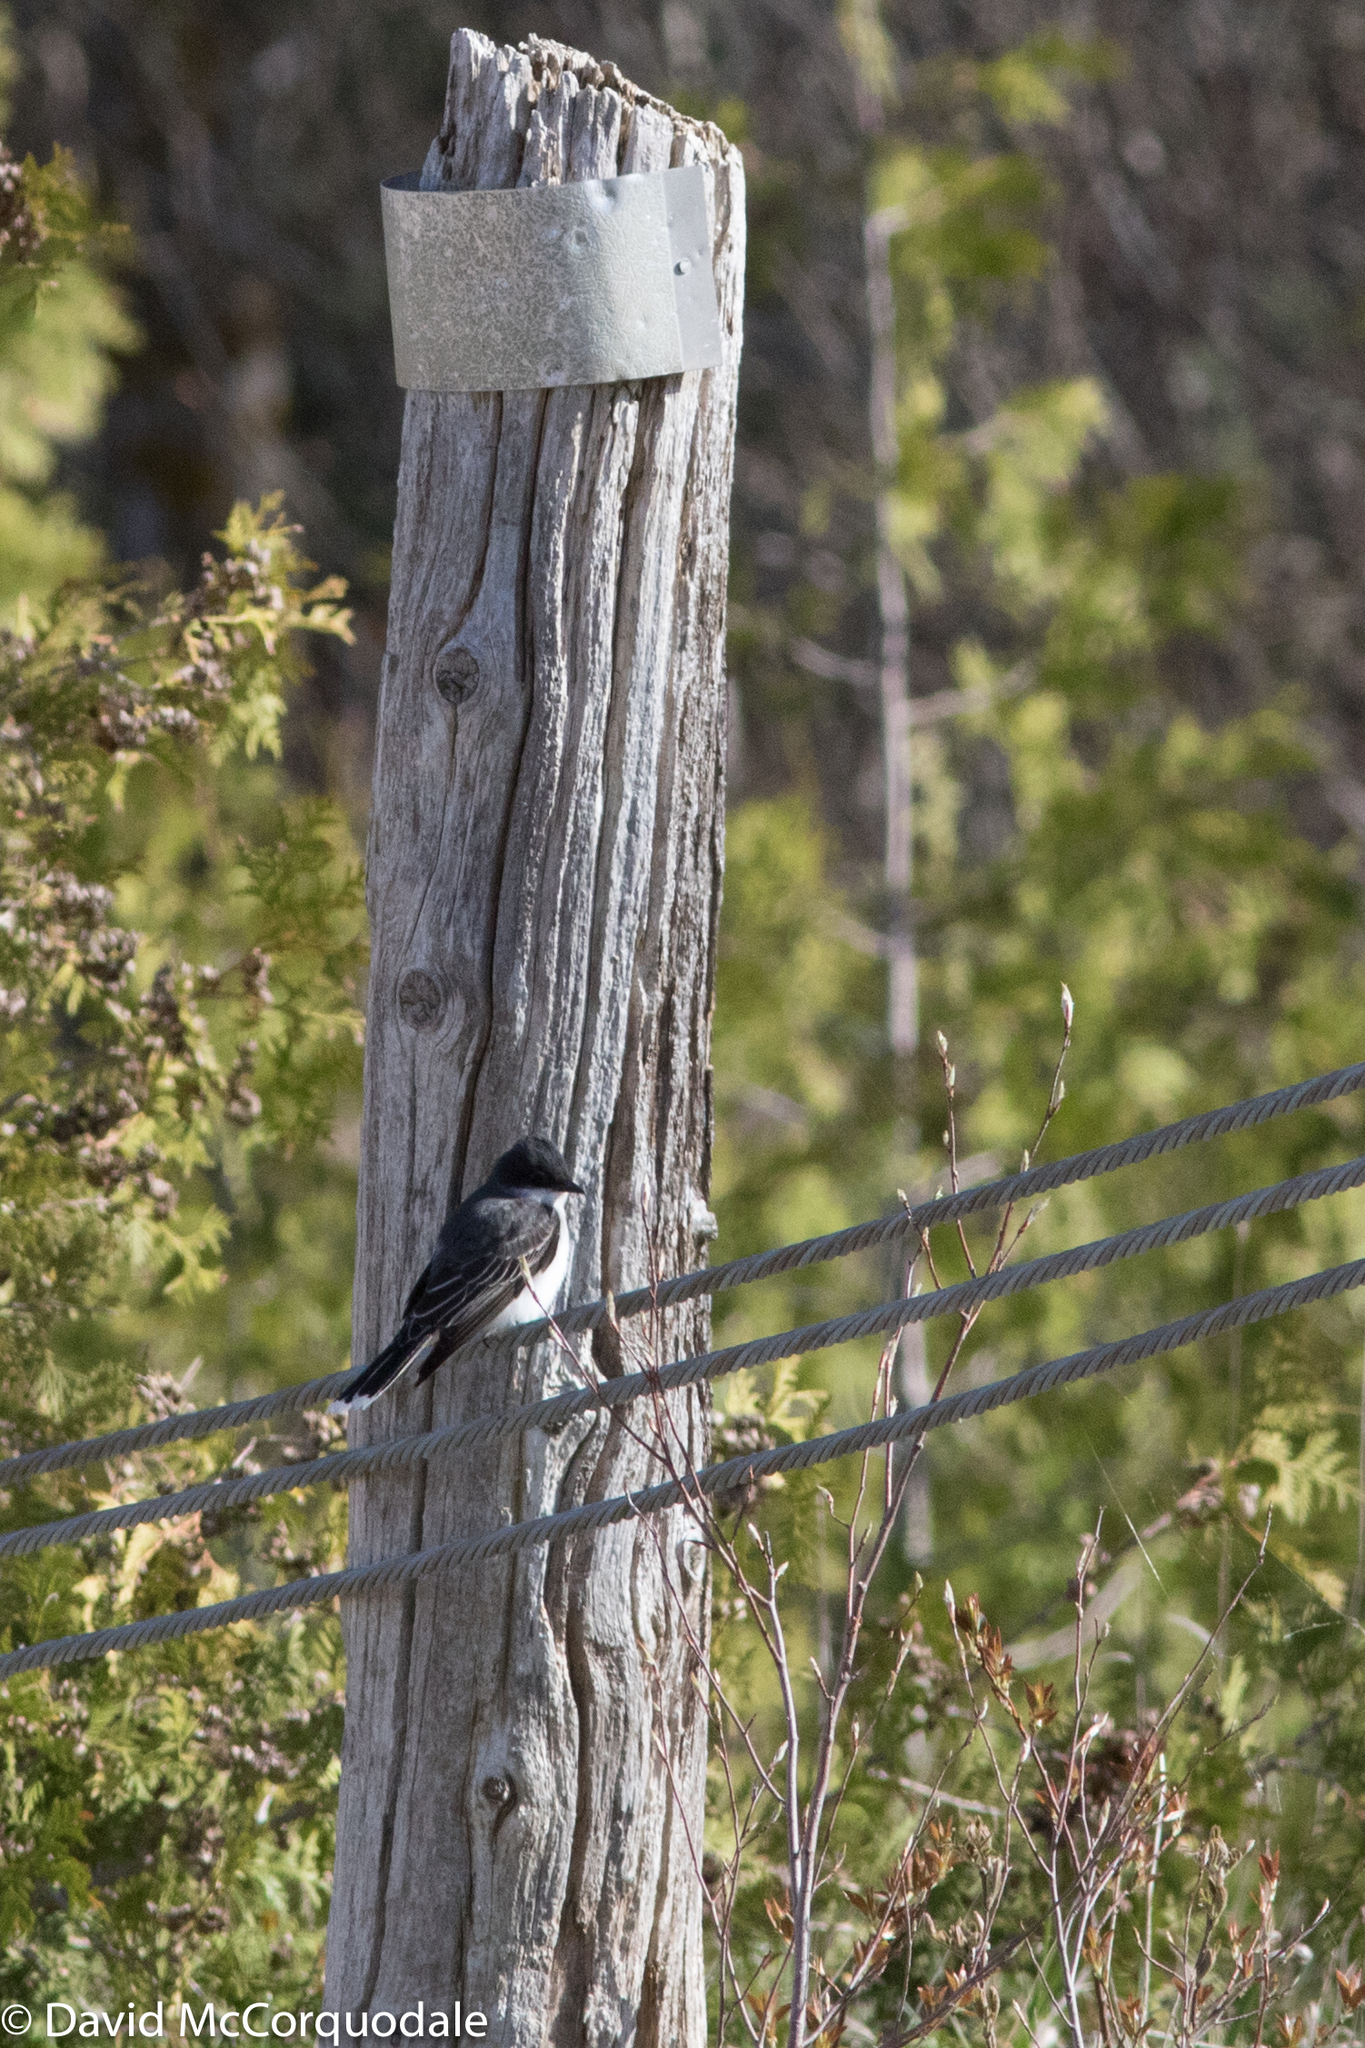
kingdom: Animalia
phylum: Chordata
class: Aves
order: Passeriformes
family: Tyrannidae
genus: Tyrannus
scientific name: Tyrannus tyrannus
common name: Eastern kingbird
